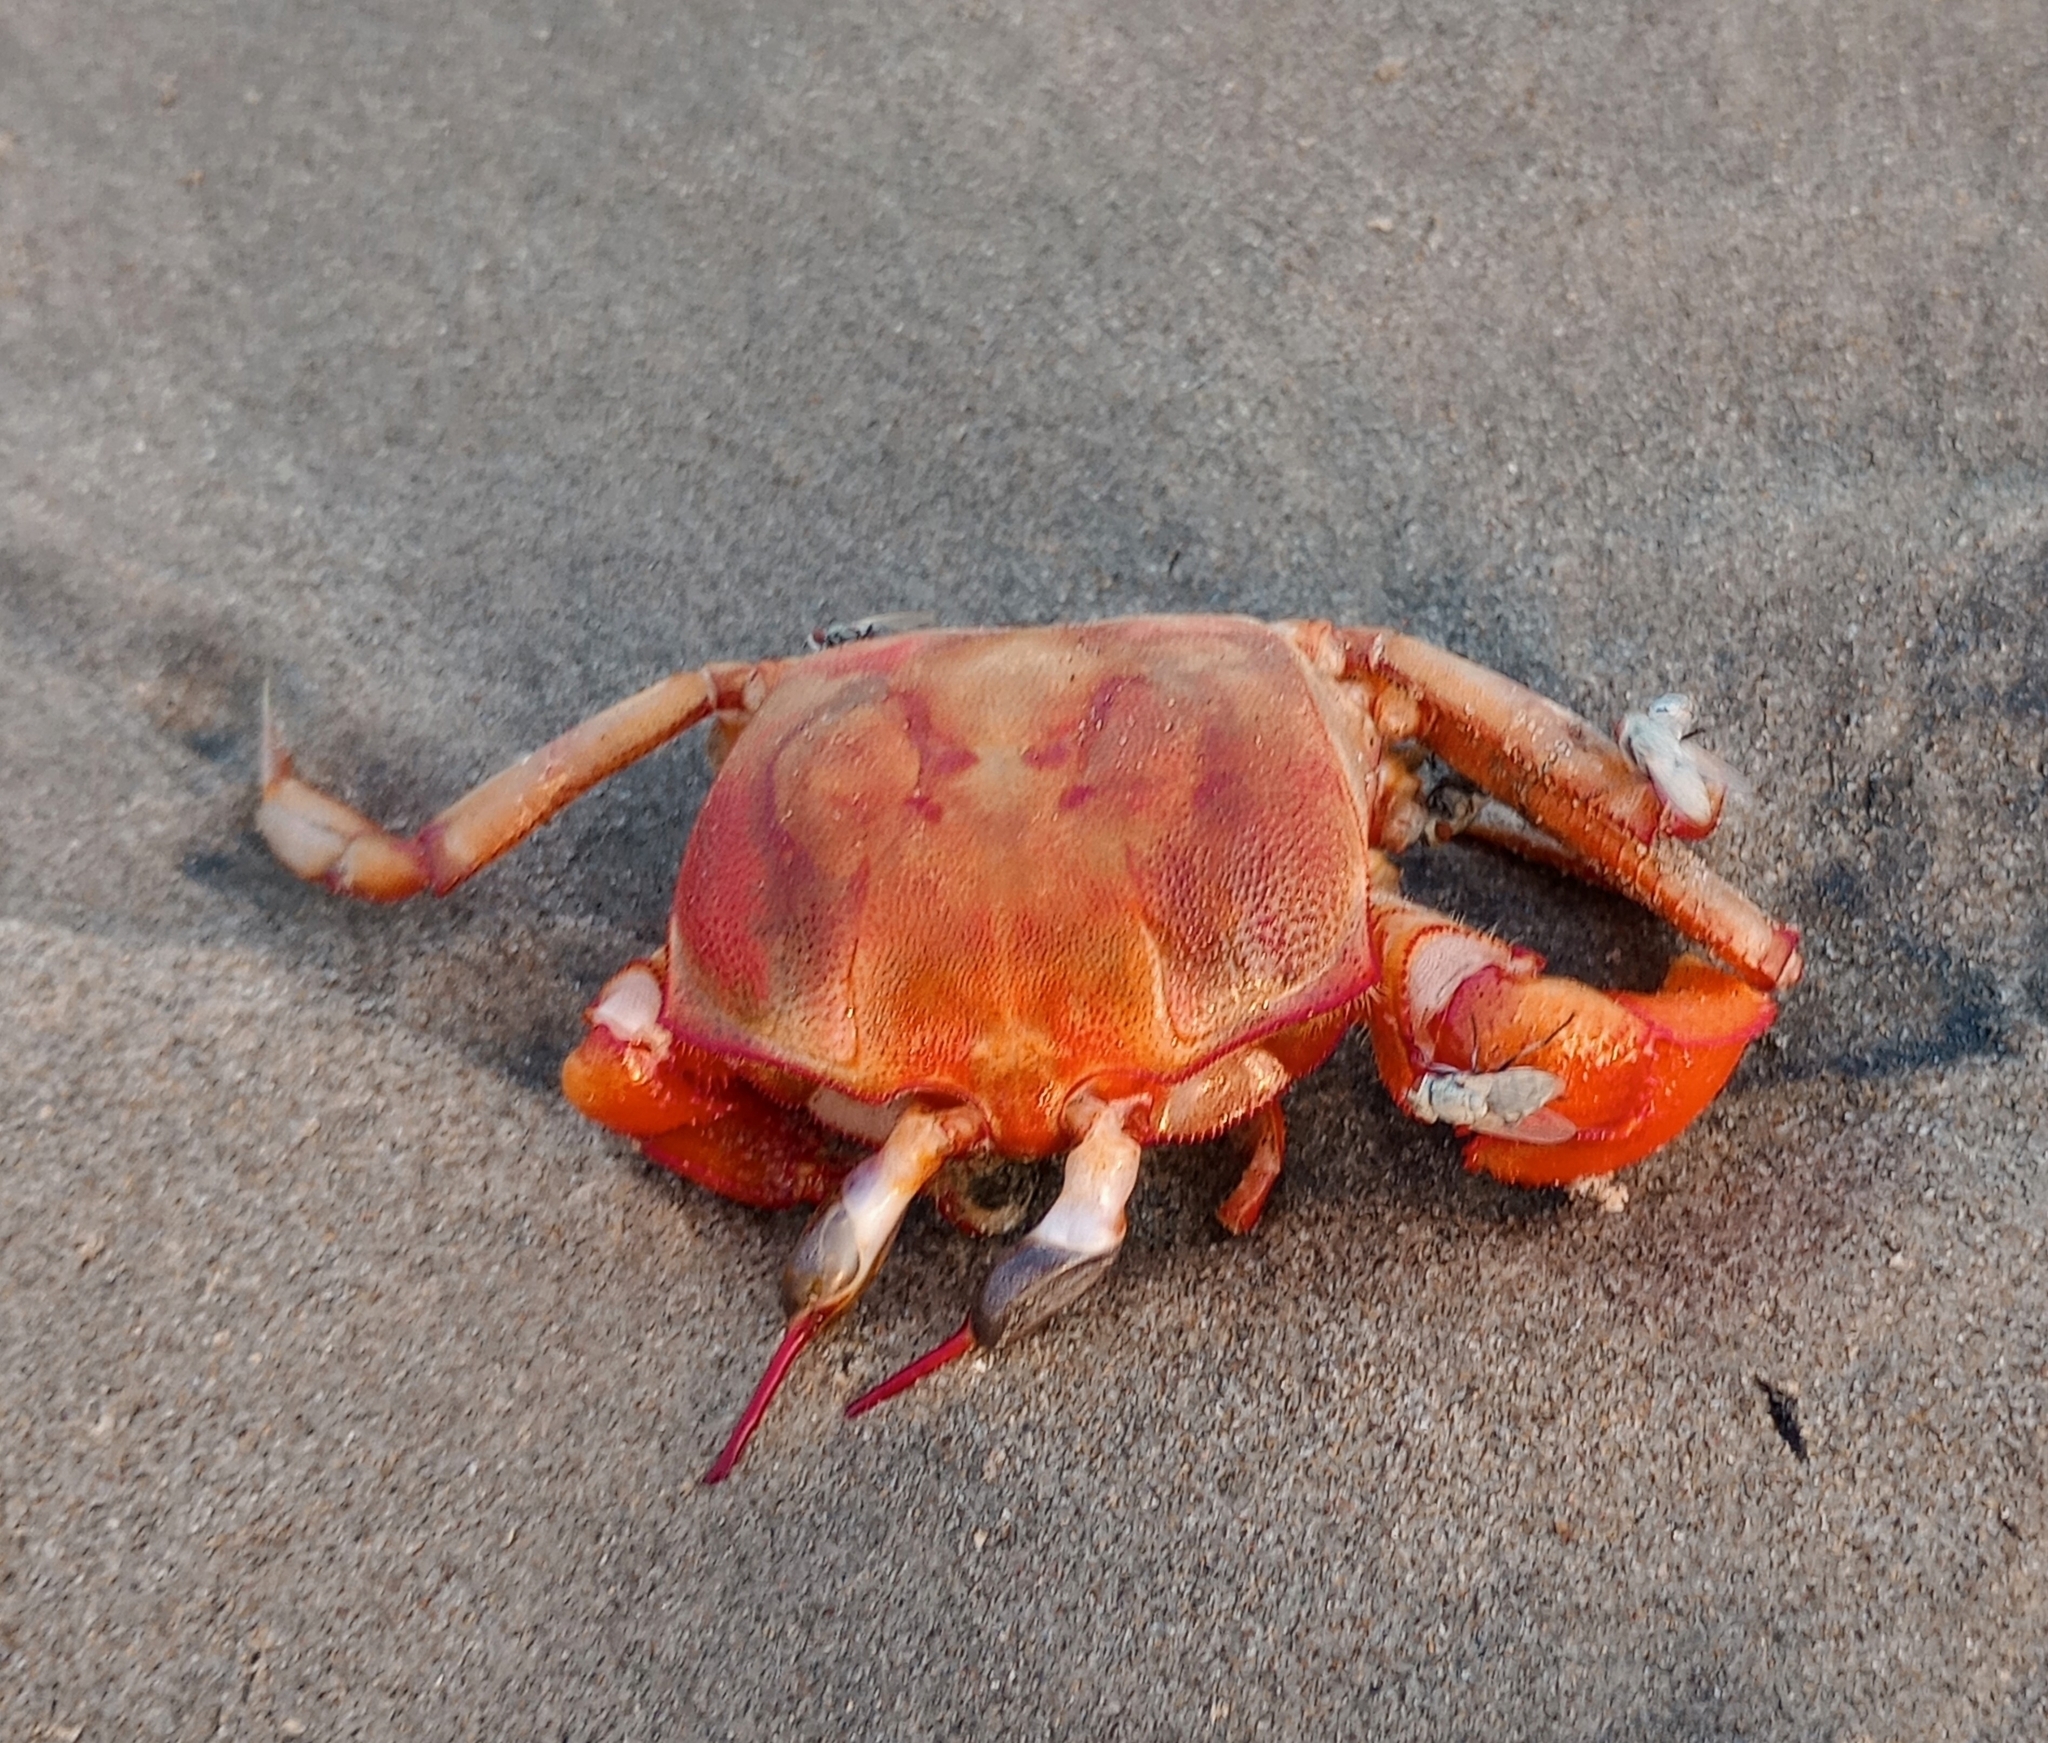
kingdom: Animalia
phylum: Arthropoda
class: Malacostraca
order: Decapoda
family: Ocypodidae
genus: Ocypode
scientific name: Ocypode macrocera
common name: Red ghost crab
